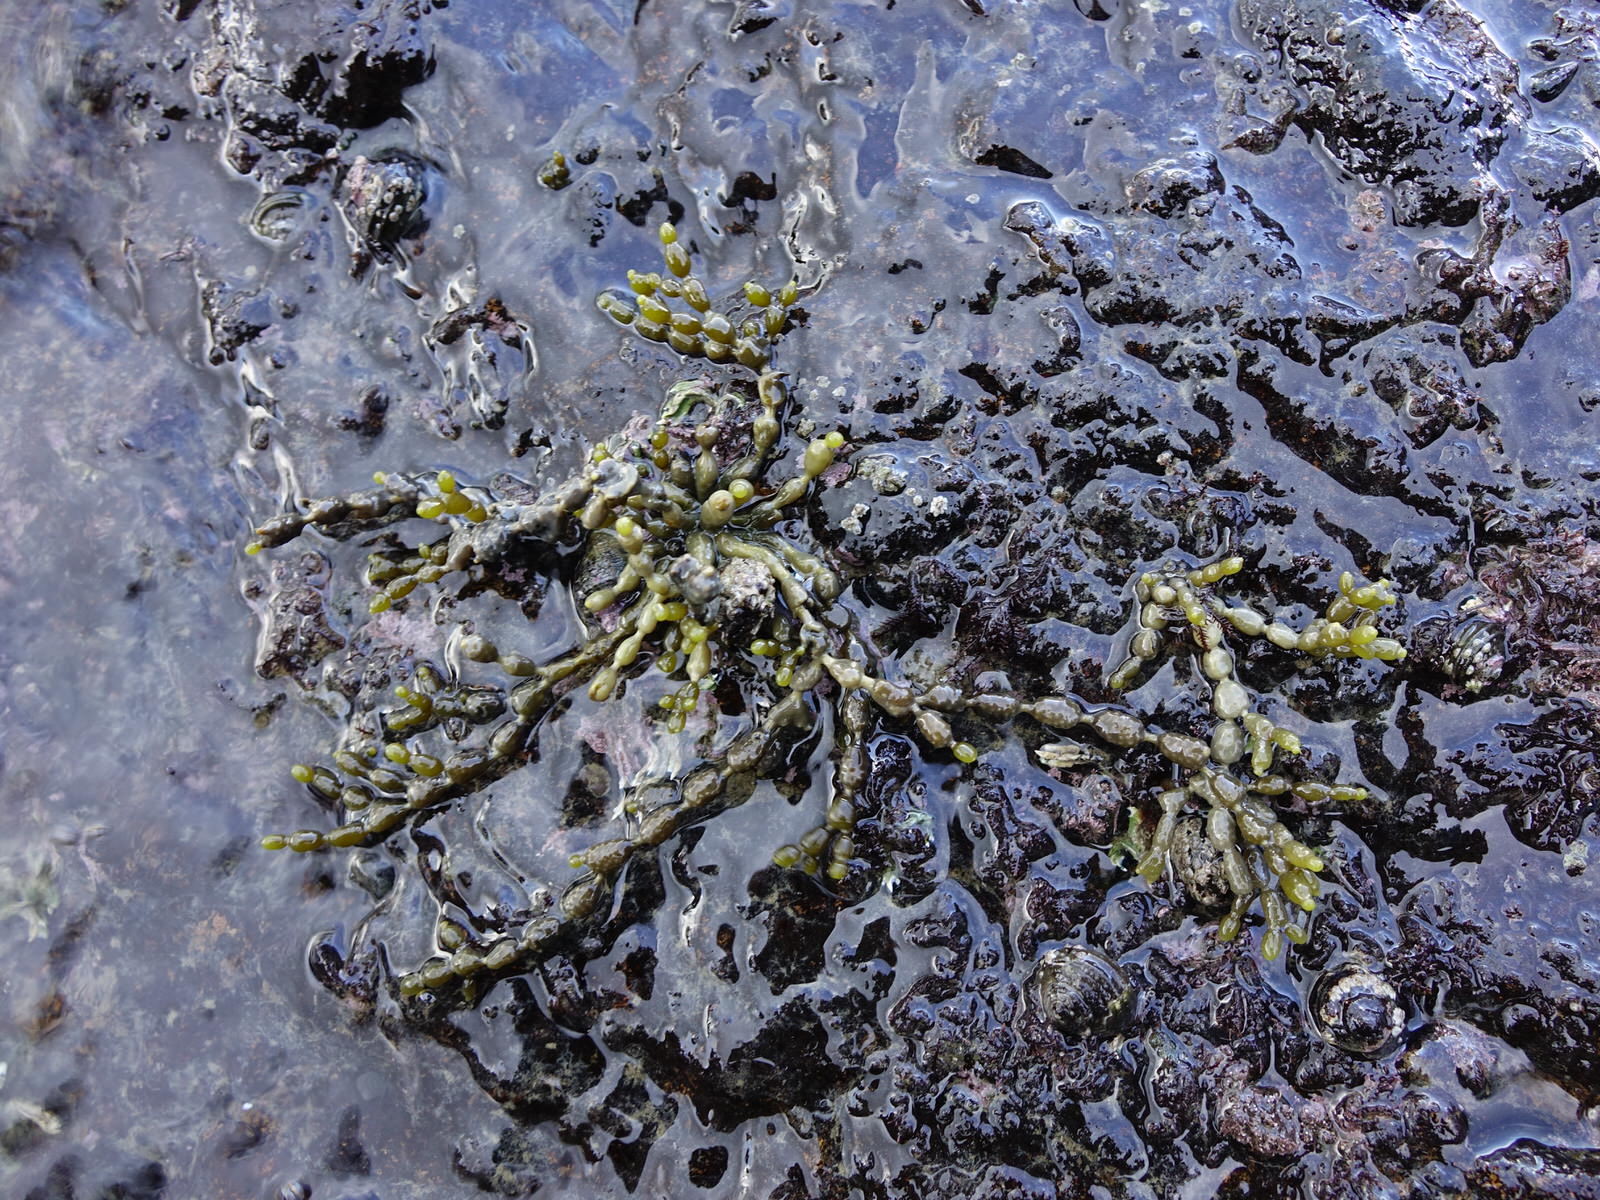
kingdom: Chromista
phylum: Ochrophyta
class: Phaeophyceae
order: Fucales
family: Hormosiraceae
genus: Hormosira
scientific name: Hormosira banksii
